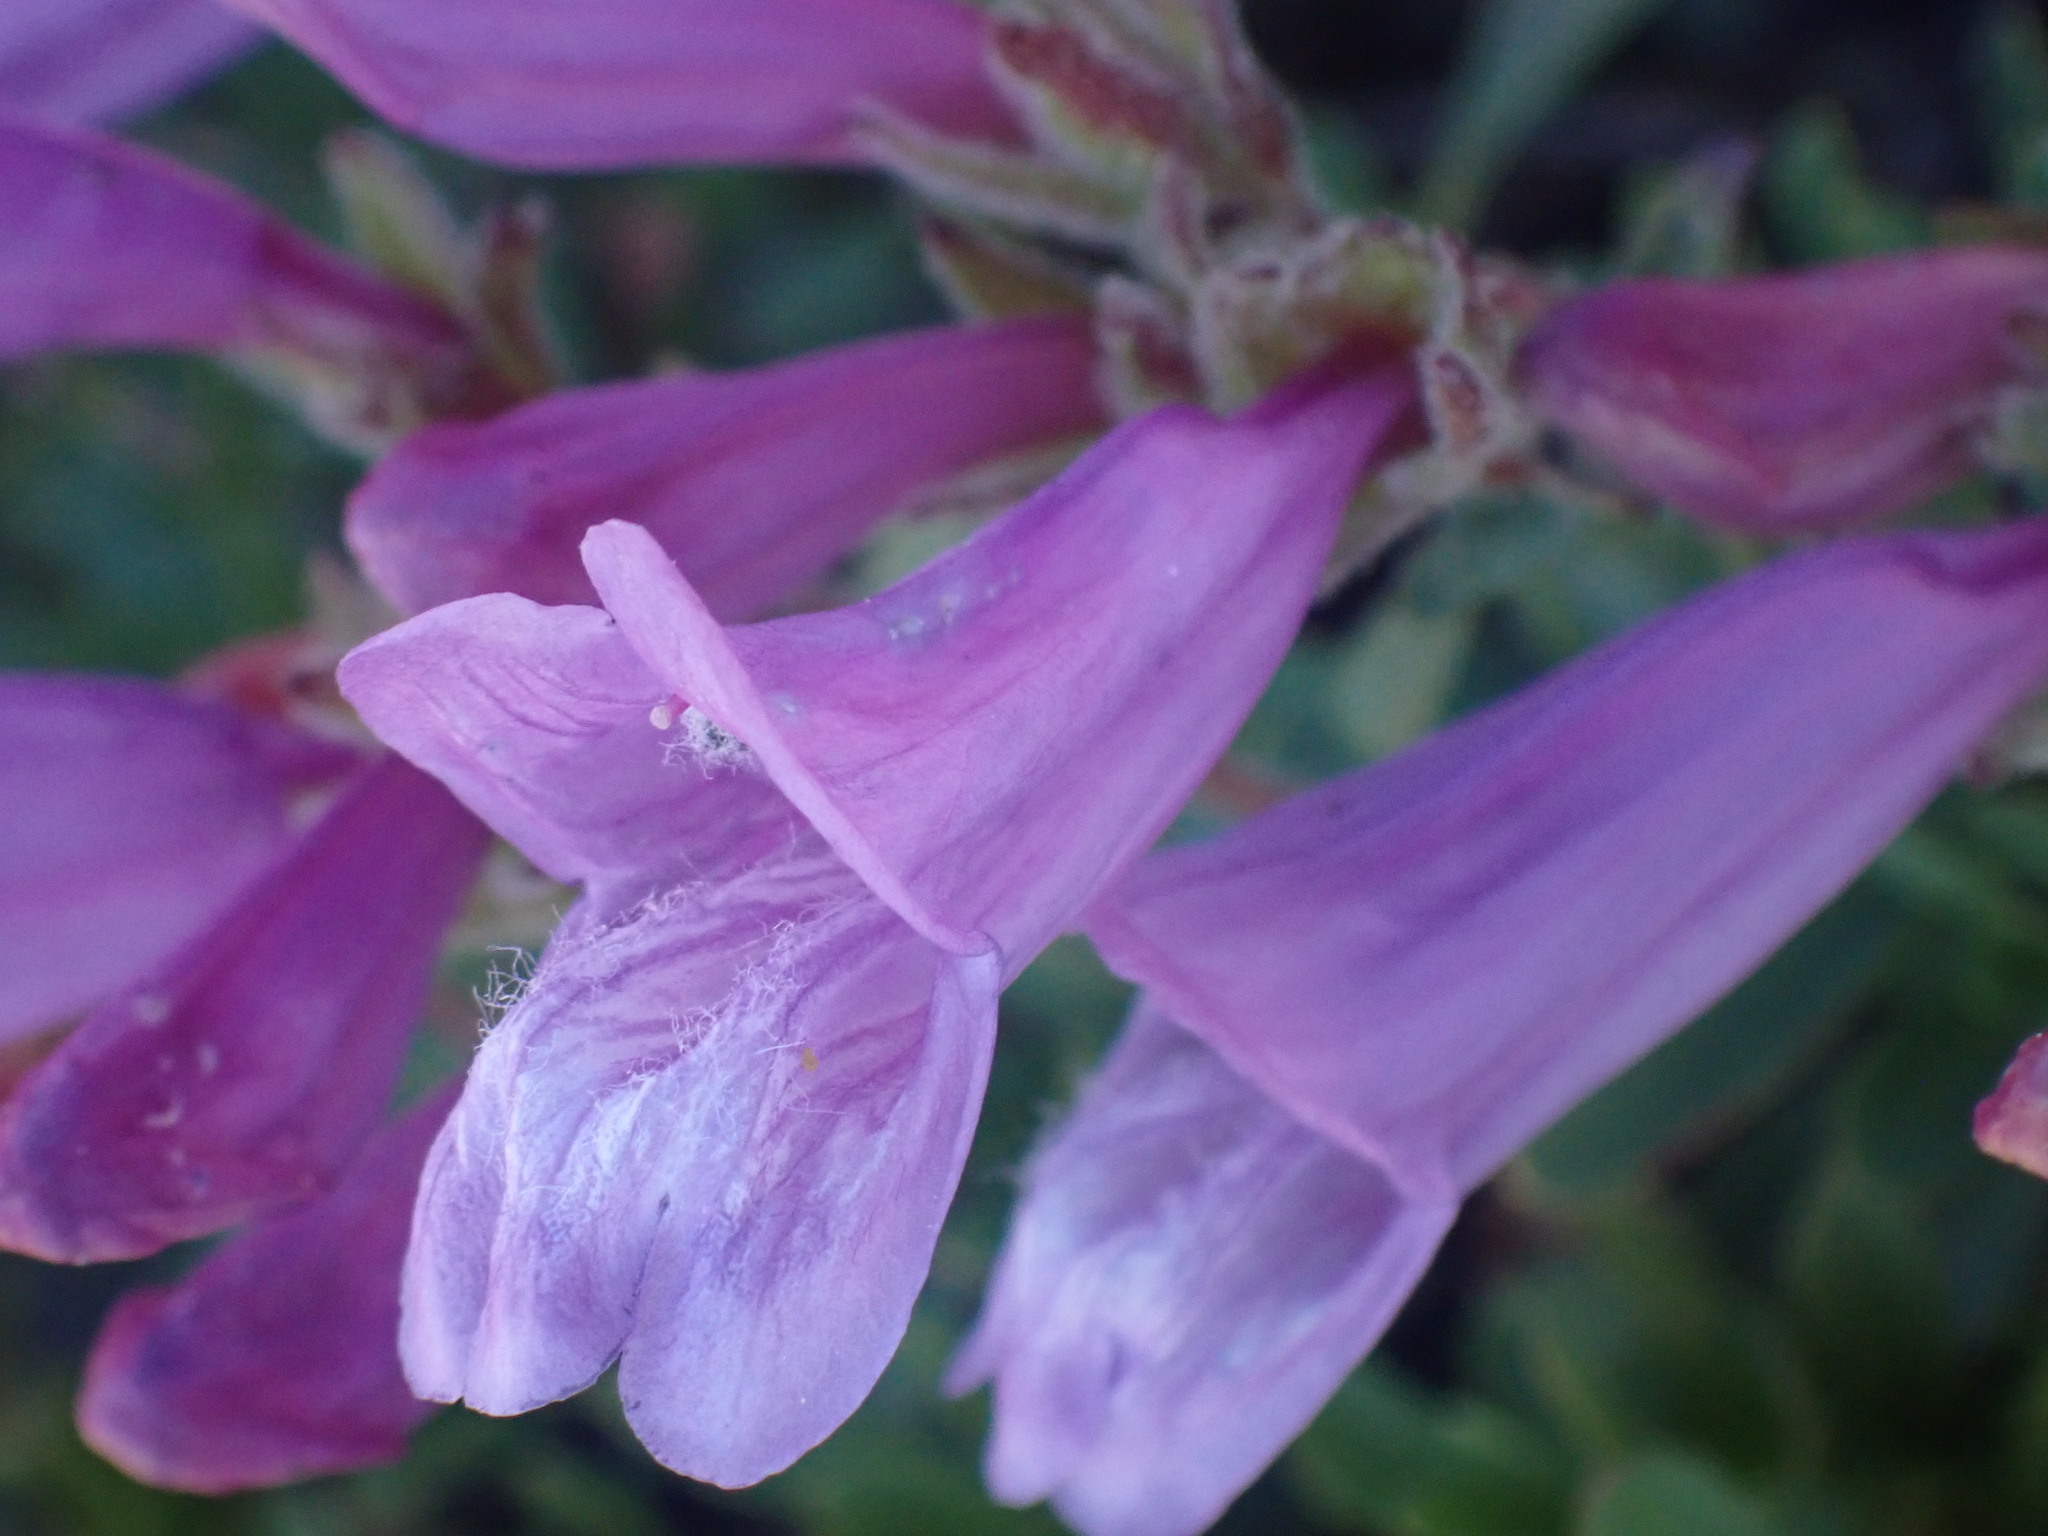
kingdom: Plantae
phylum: Tracheophyta
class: Magnoliopsida
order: Lamiales
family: Plantaginaceae
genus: Penstemon
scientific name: Penstemon ellipticus
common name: Alpine beardtongue
